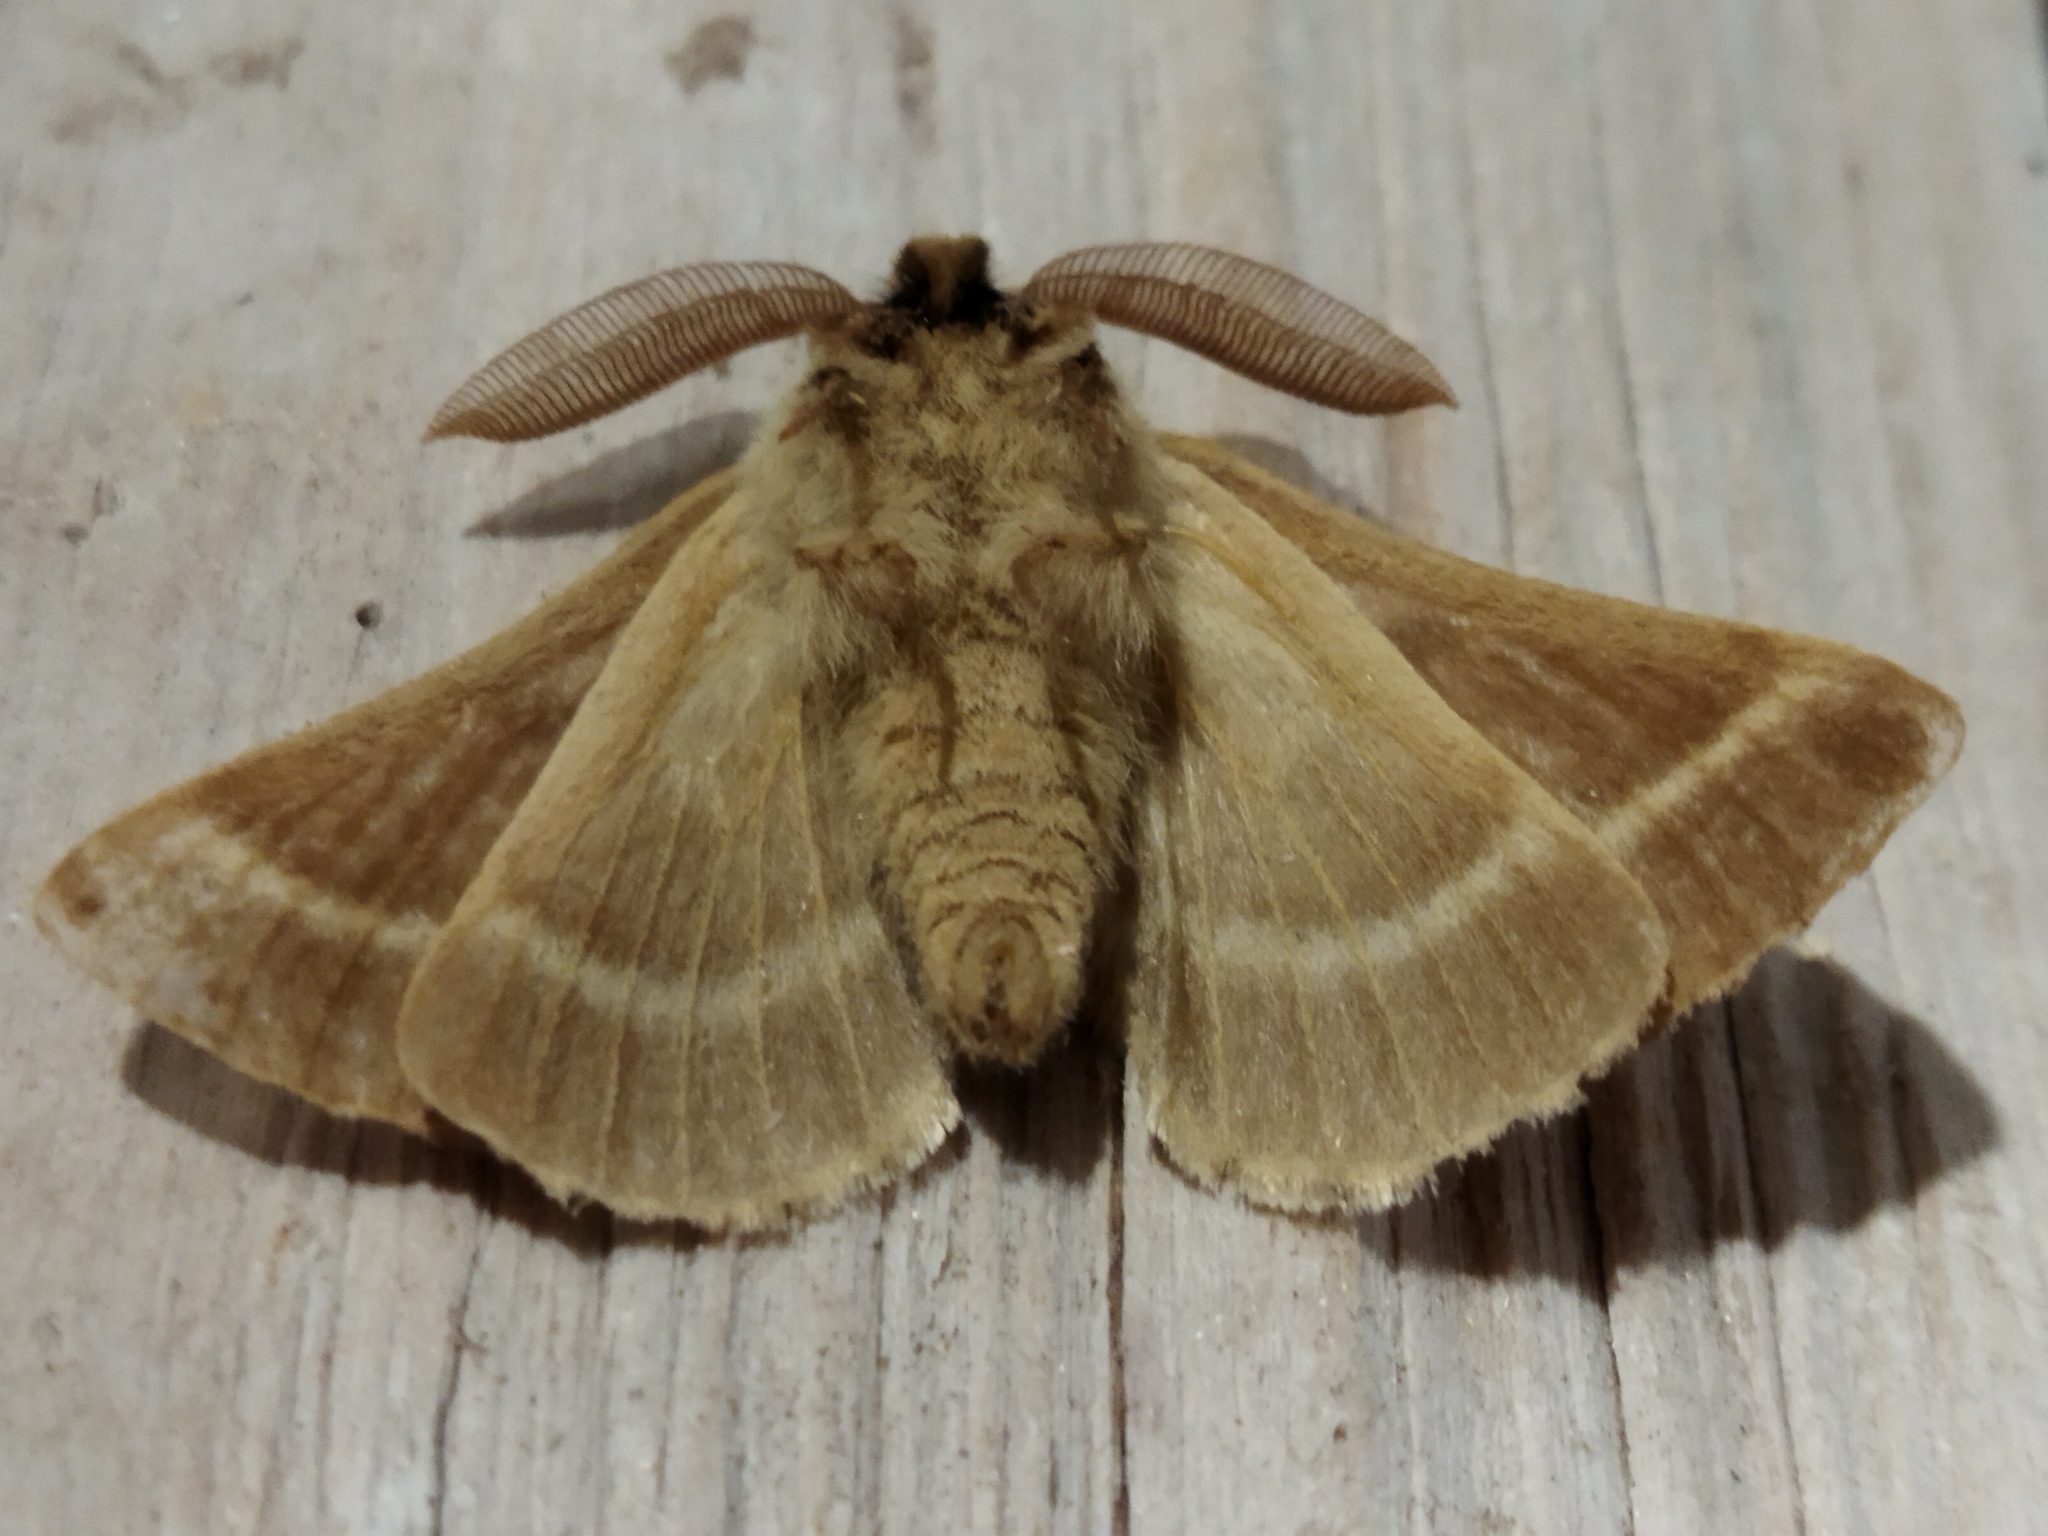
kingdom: Animalia
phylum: Arthropoda
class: Insecta
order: Lepidoptera
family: Brahmaeidae
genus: Lemonia
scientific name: Lemonia balcanica
